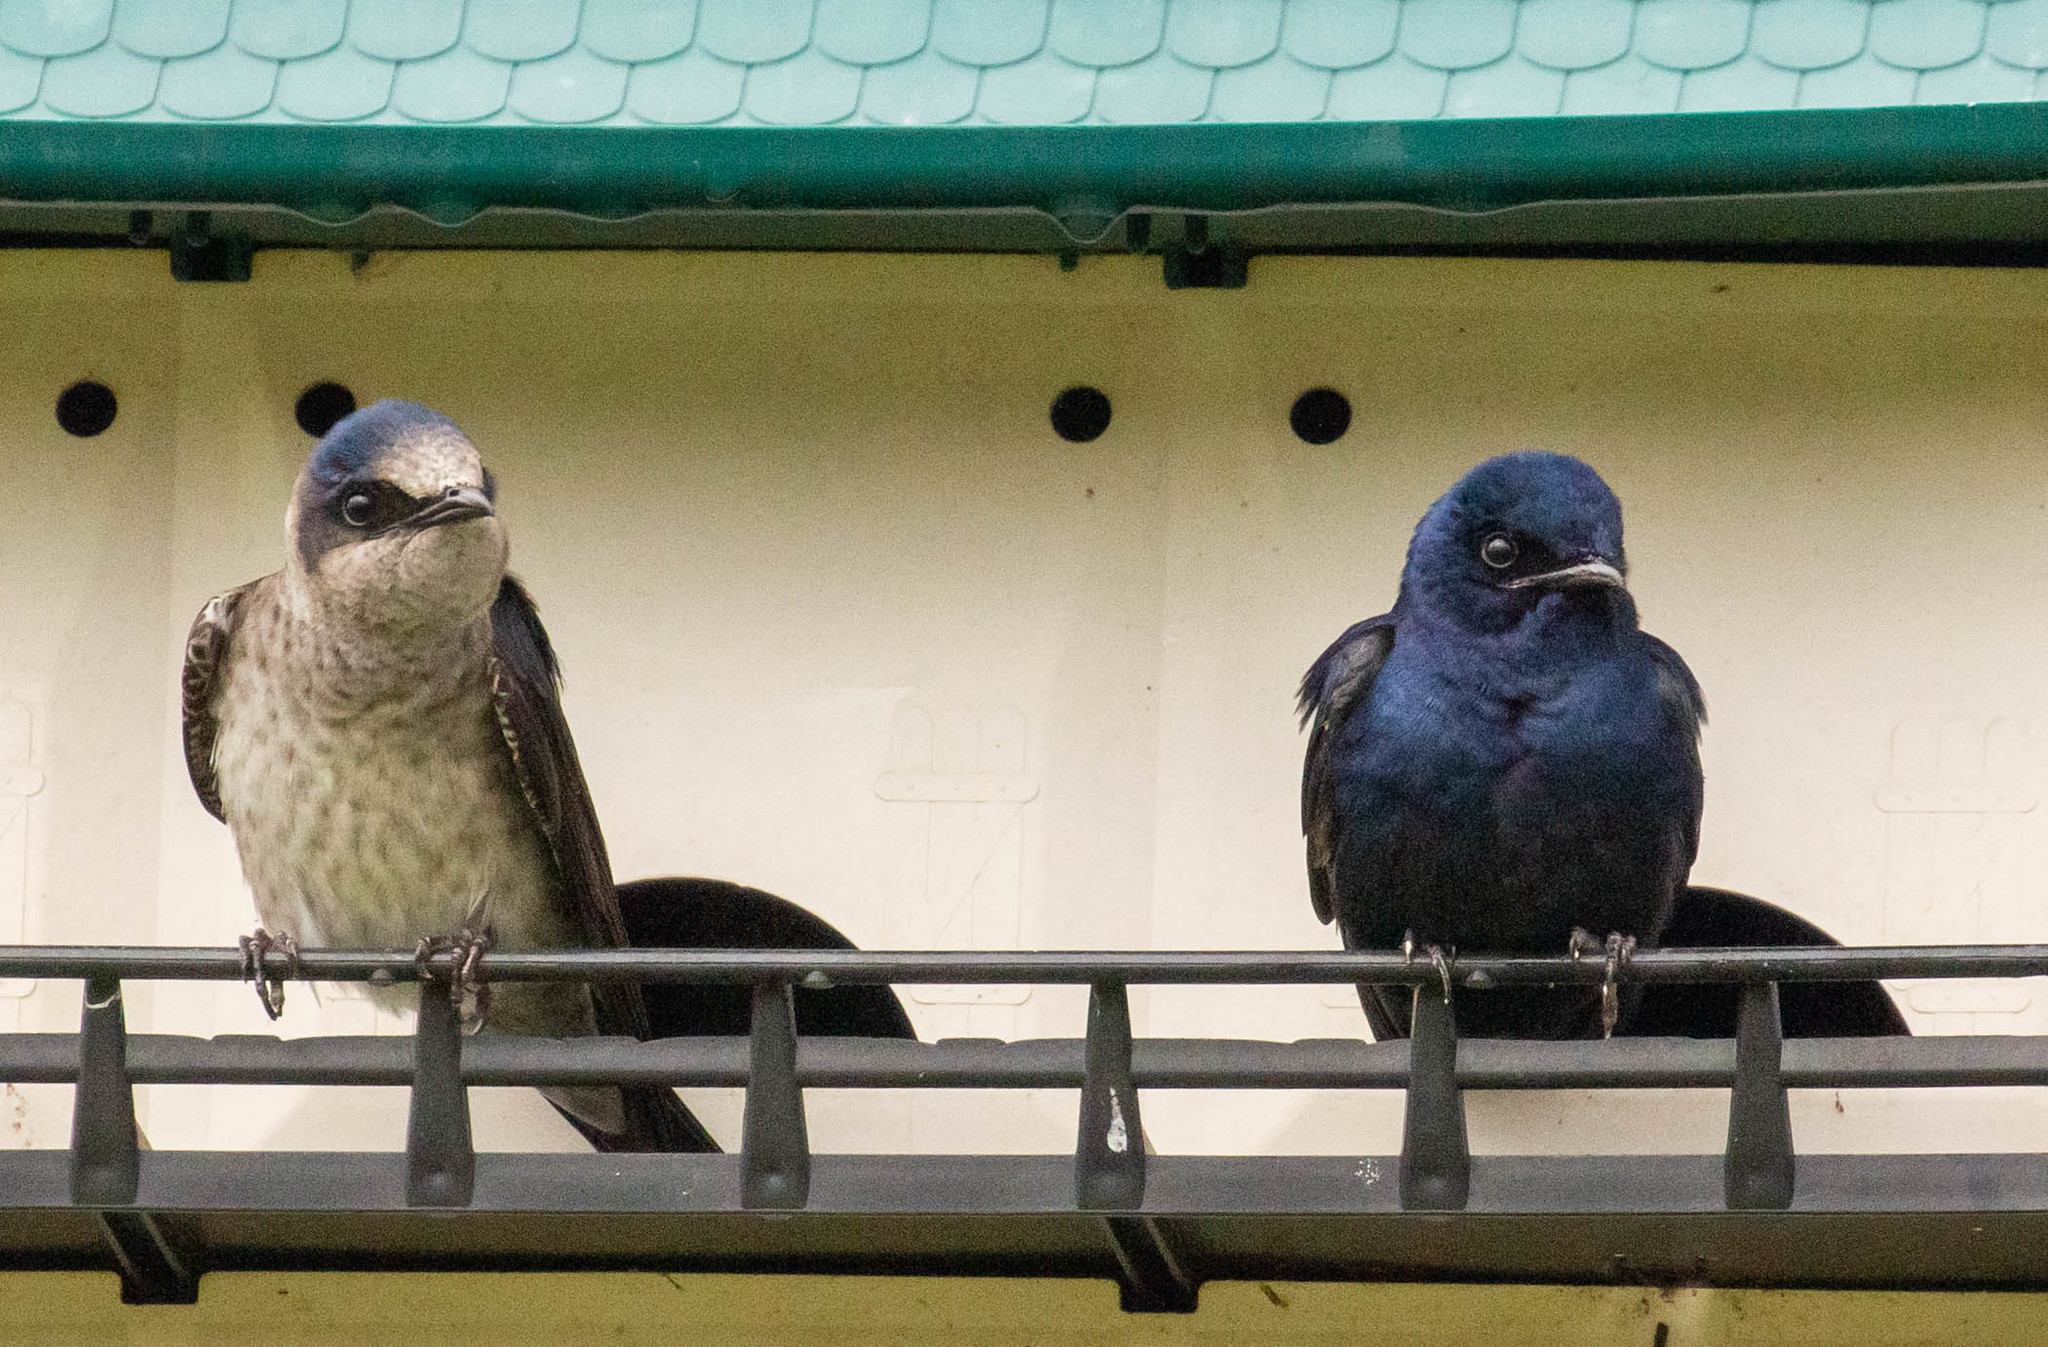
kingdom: Animalia
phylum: Chordata
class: Aves
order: Passeriformes
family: Hirundinidae
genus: Progne
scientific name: Progne subis
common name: Purple martin
